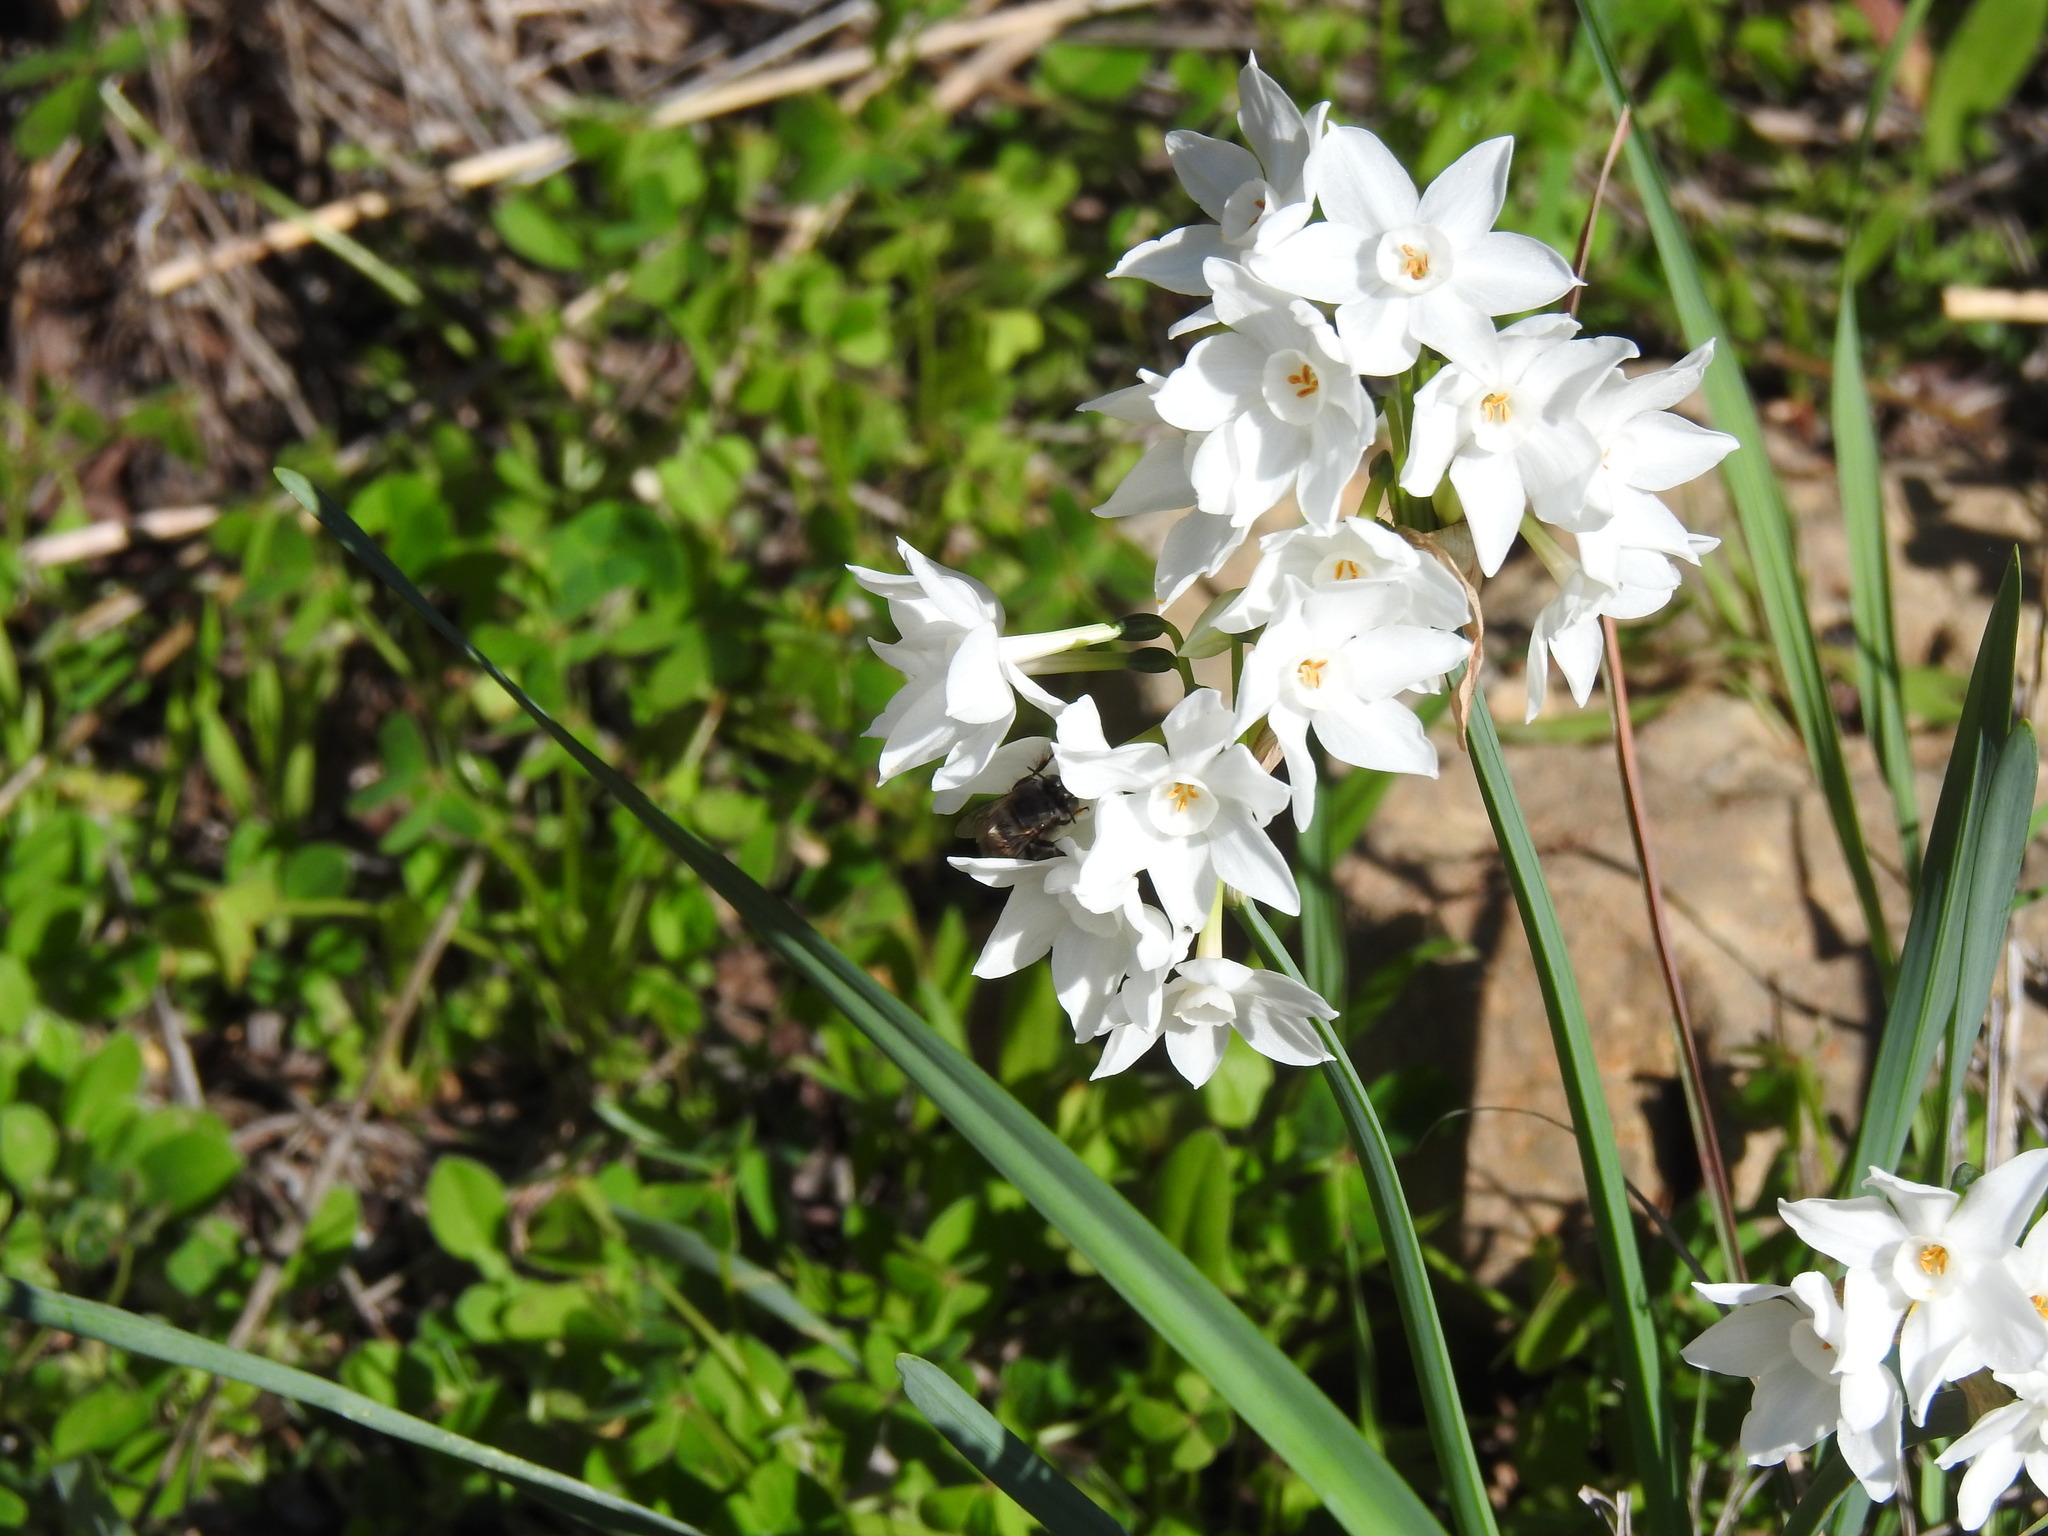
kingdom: Plantae
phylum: Tracheophyta
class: Liliopsida
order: Asparagales
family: Amaryllidaceae
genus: Narcissus
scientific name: Narcissus papyraceus
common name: Paper-white daffodil
